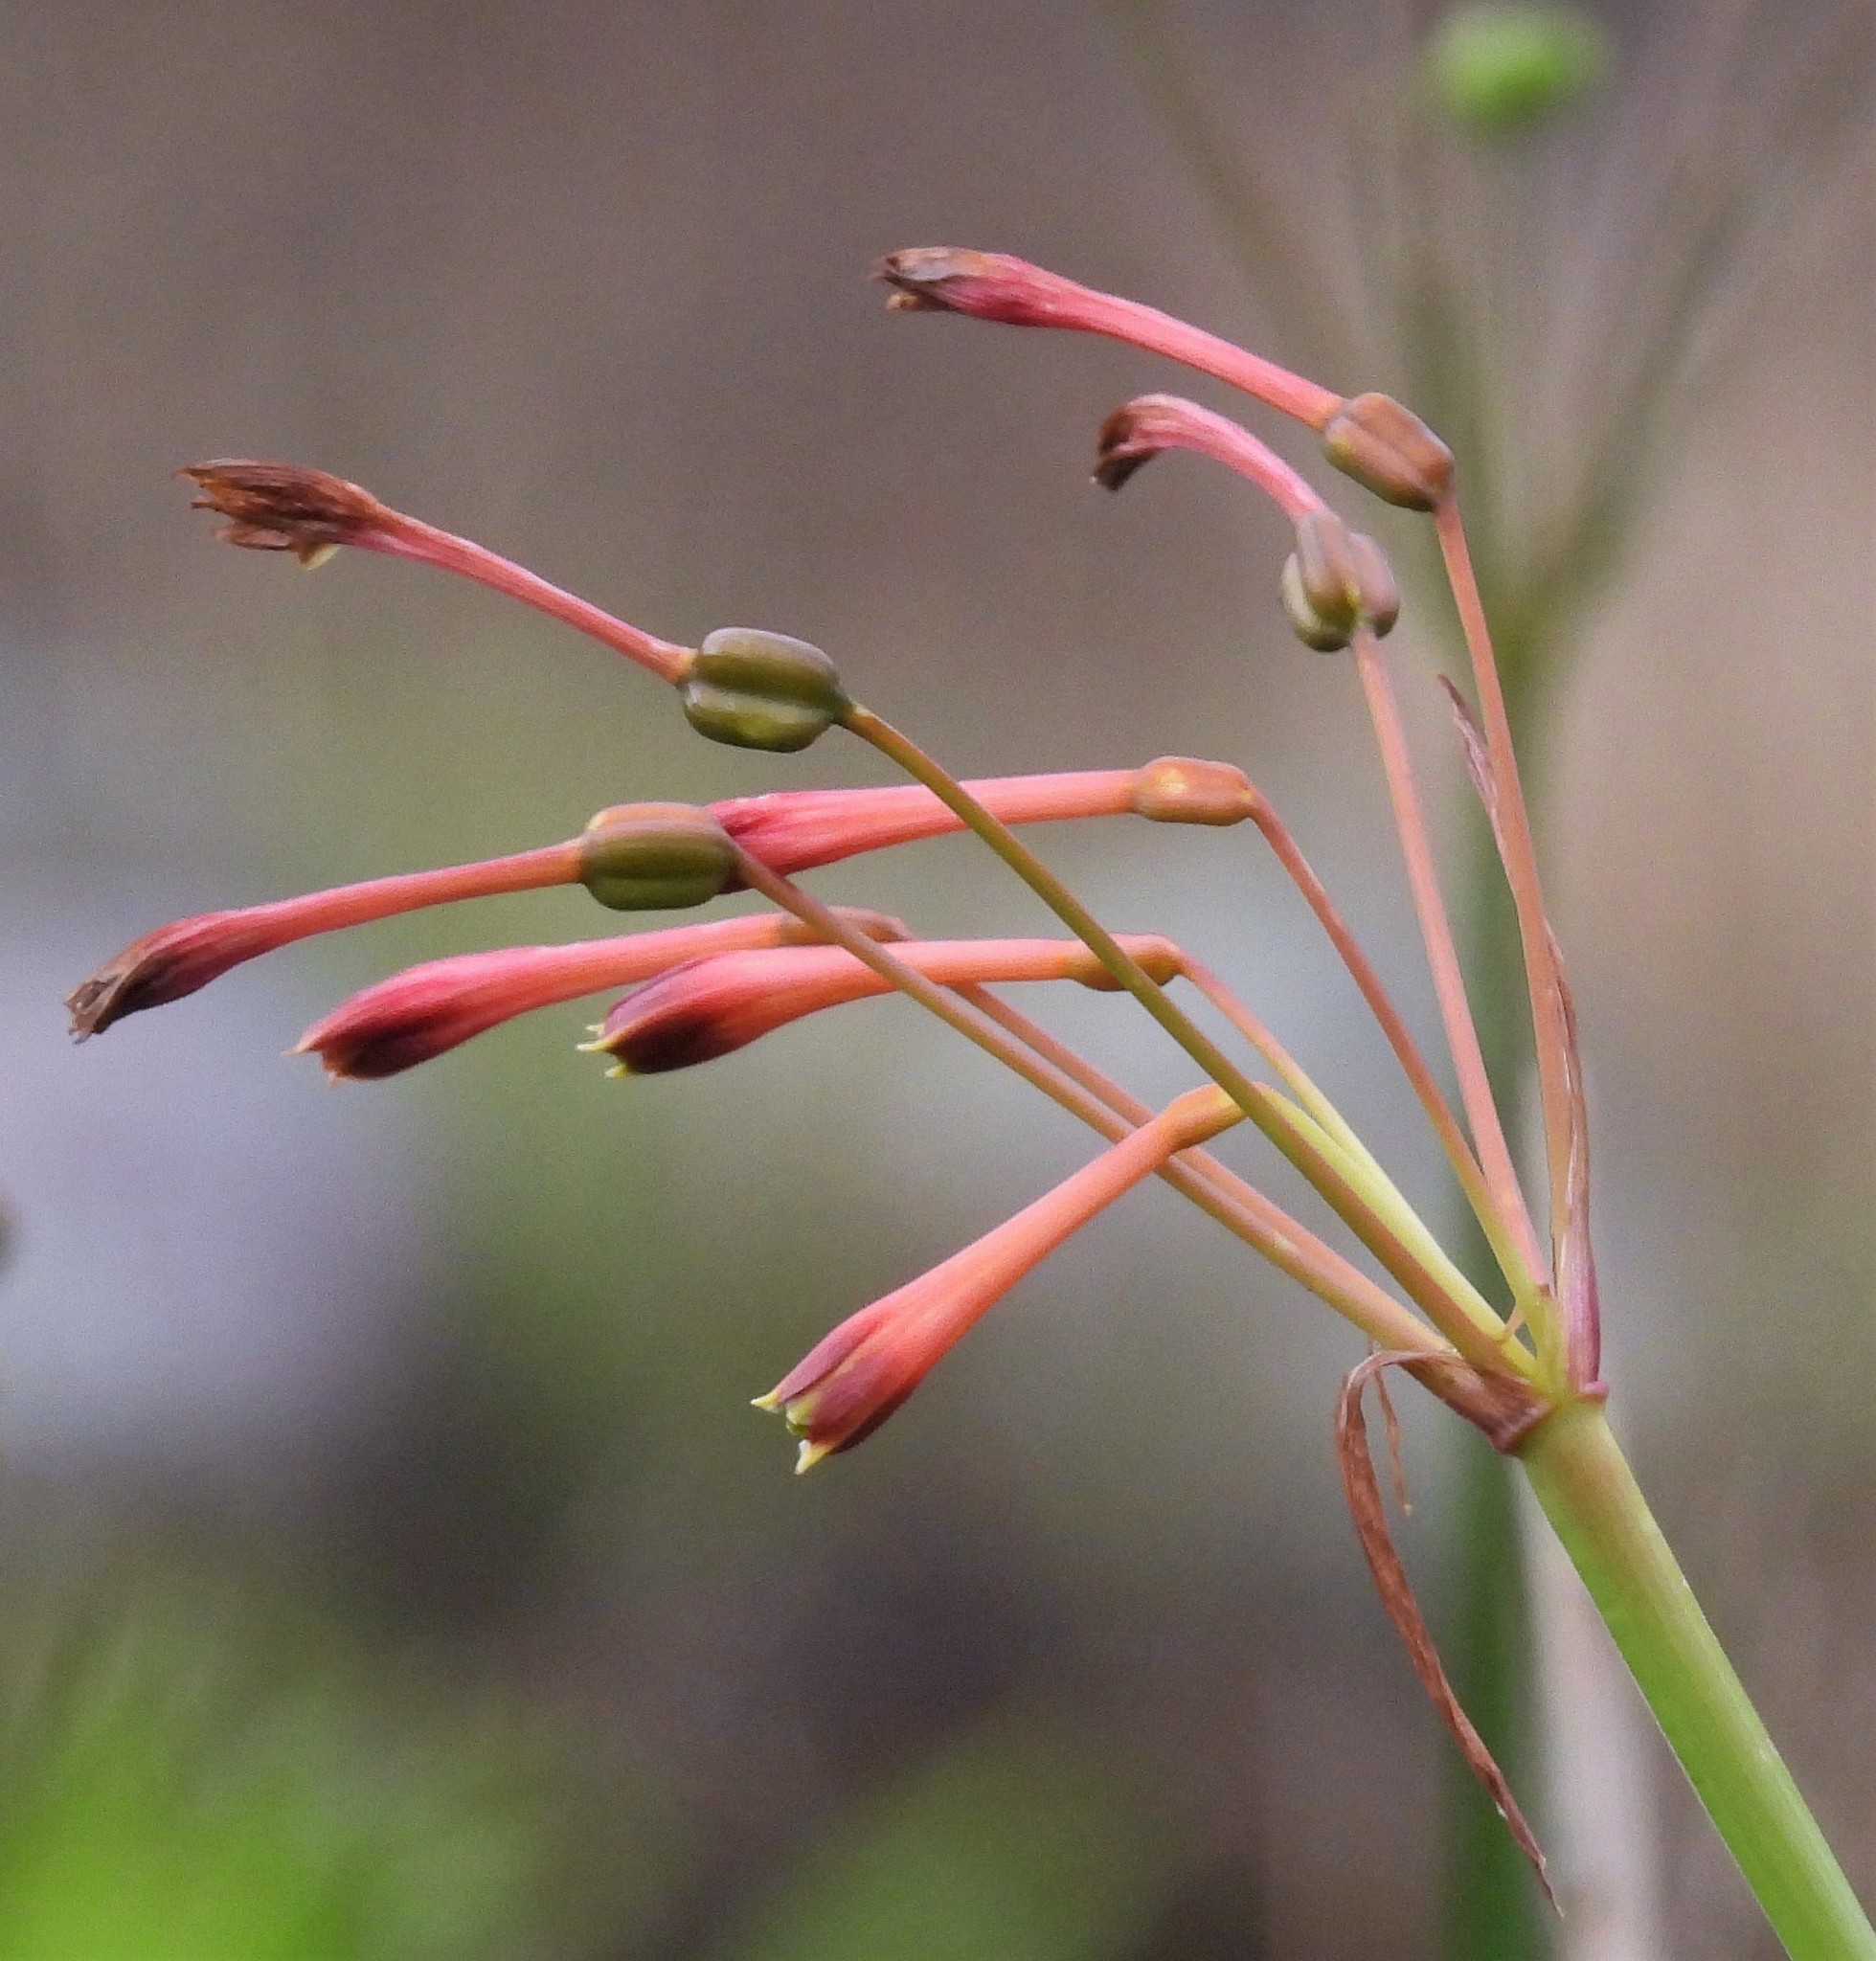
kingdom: Plantae
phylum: Tracheophyta
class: Liliopsida
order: Asparagales
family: Amaryllidaceae
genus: Hieronymiella
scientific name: Hieronymiella argentina
